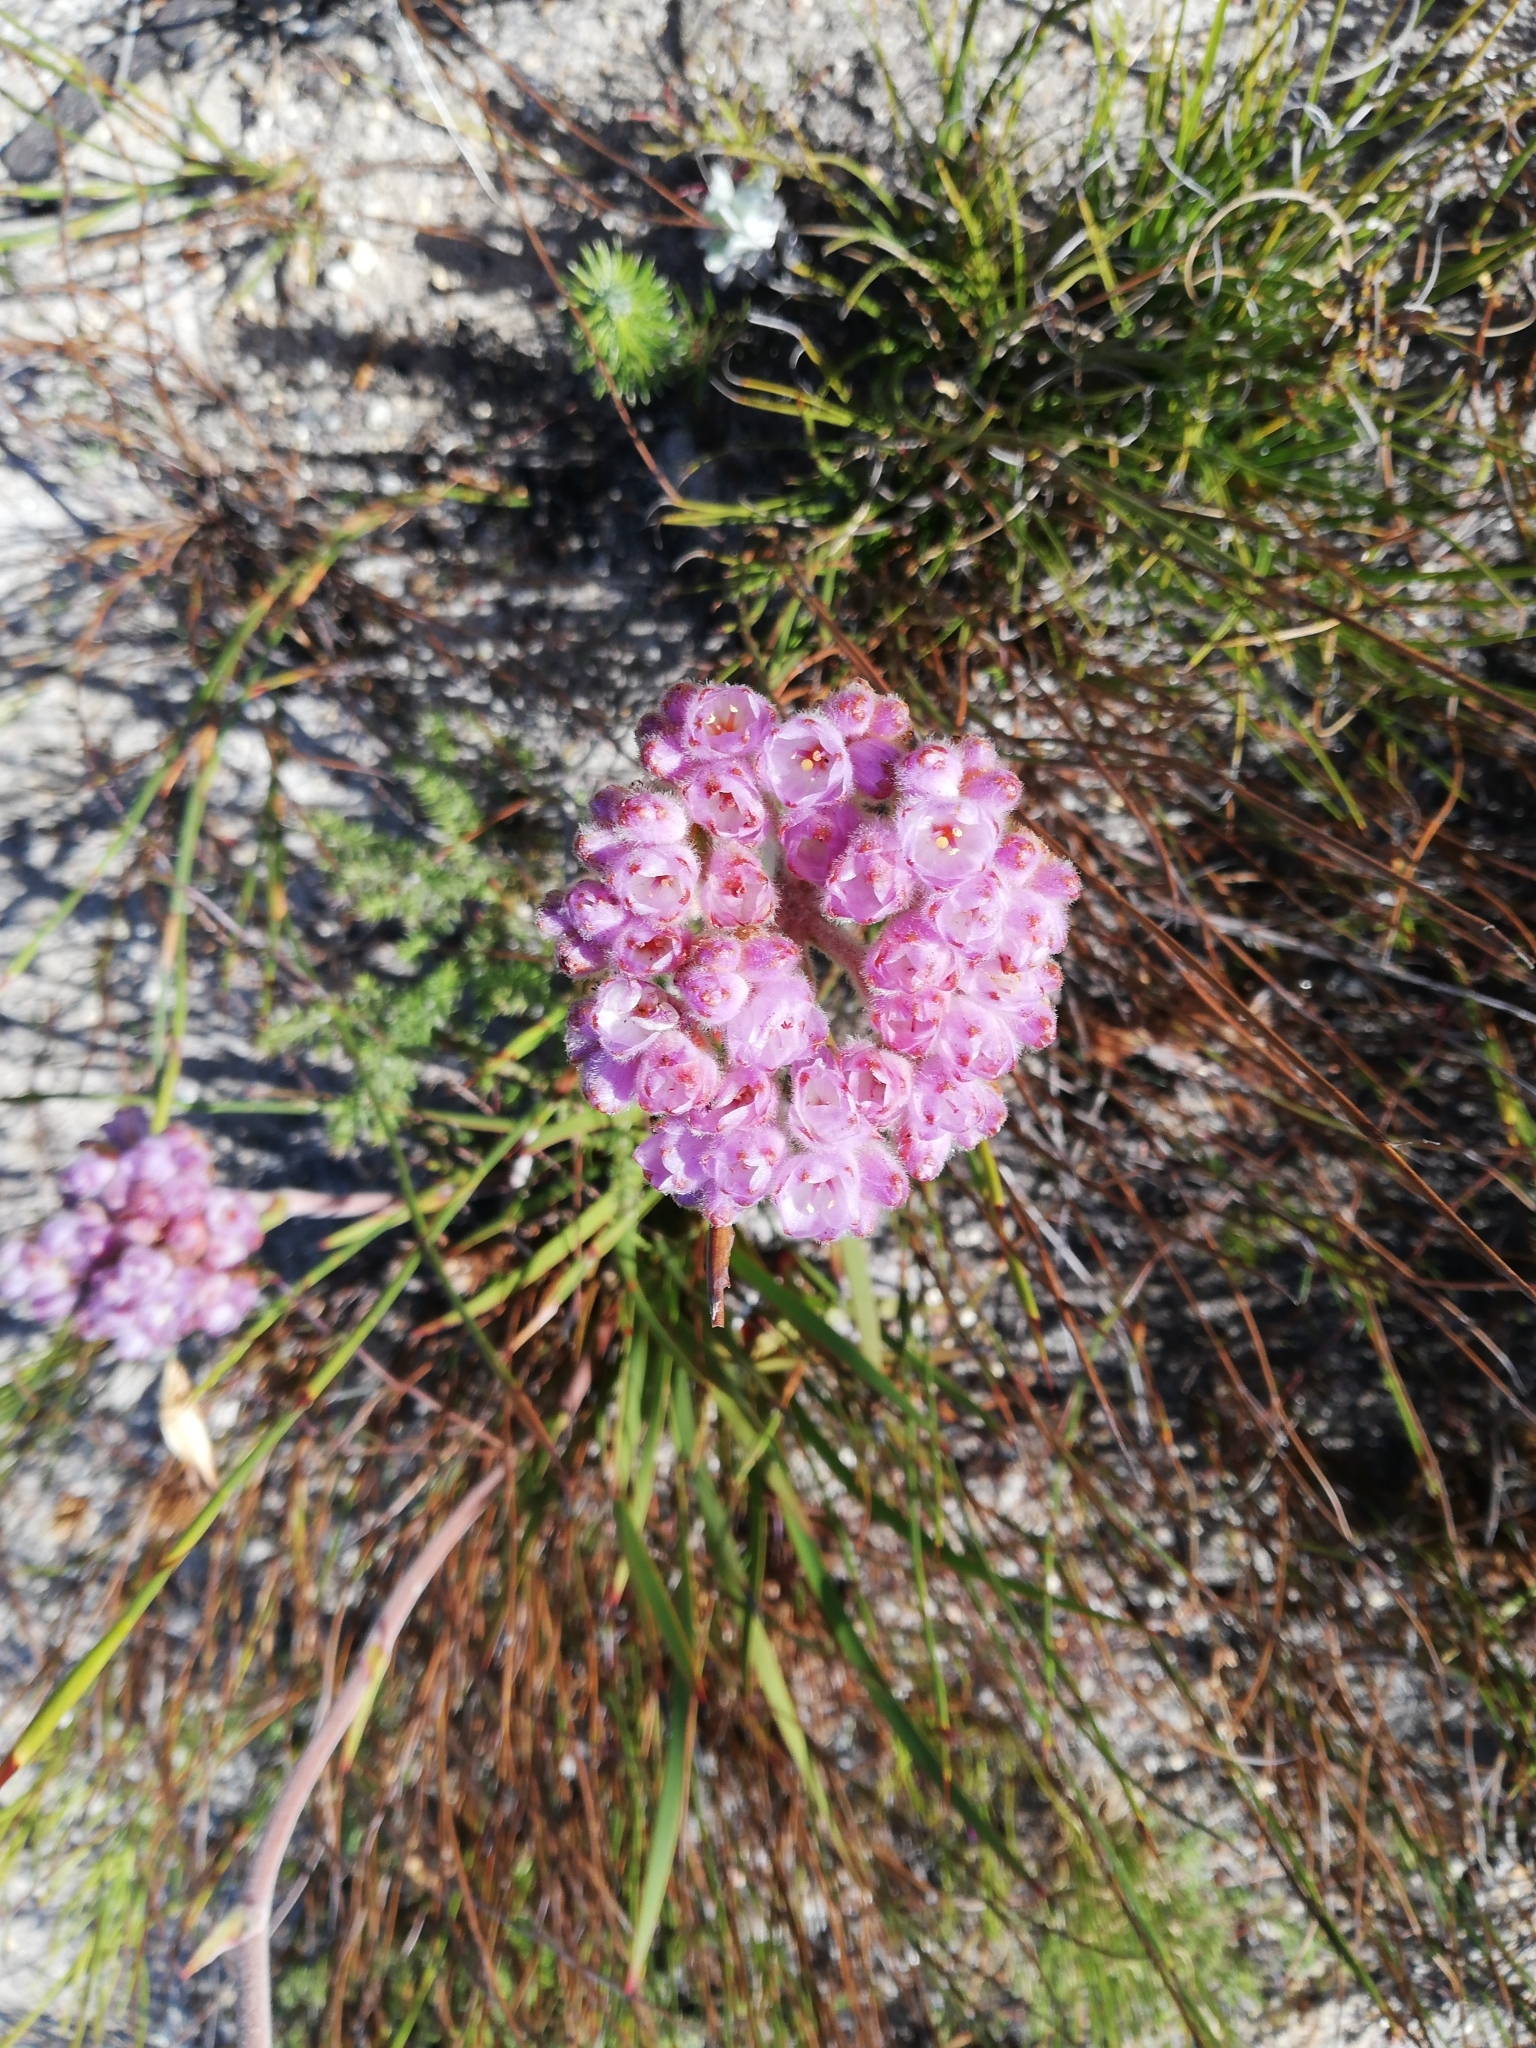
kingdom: Plantae
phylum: Tracheophyta
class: Liliopsida
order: Commelinales
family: Haemodoraceae
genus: Dilatris
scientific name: Dilatris pillansii
